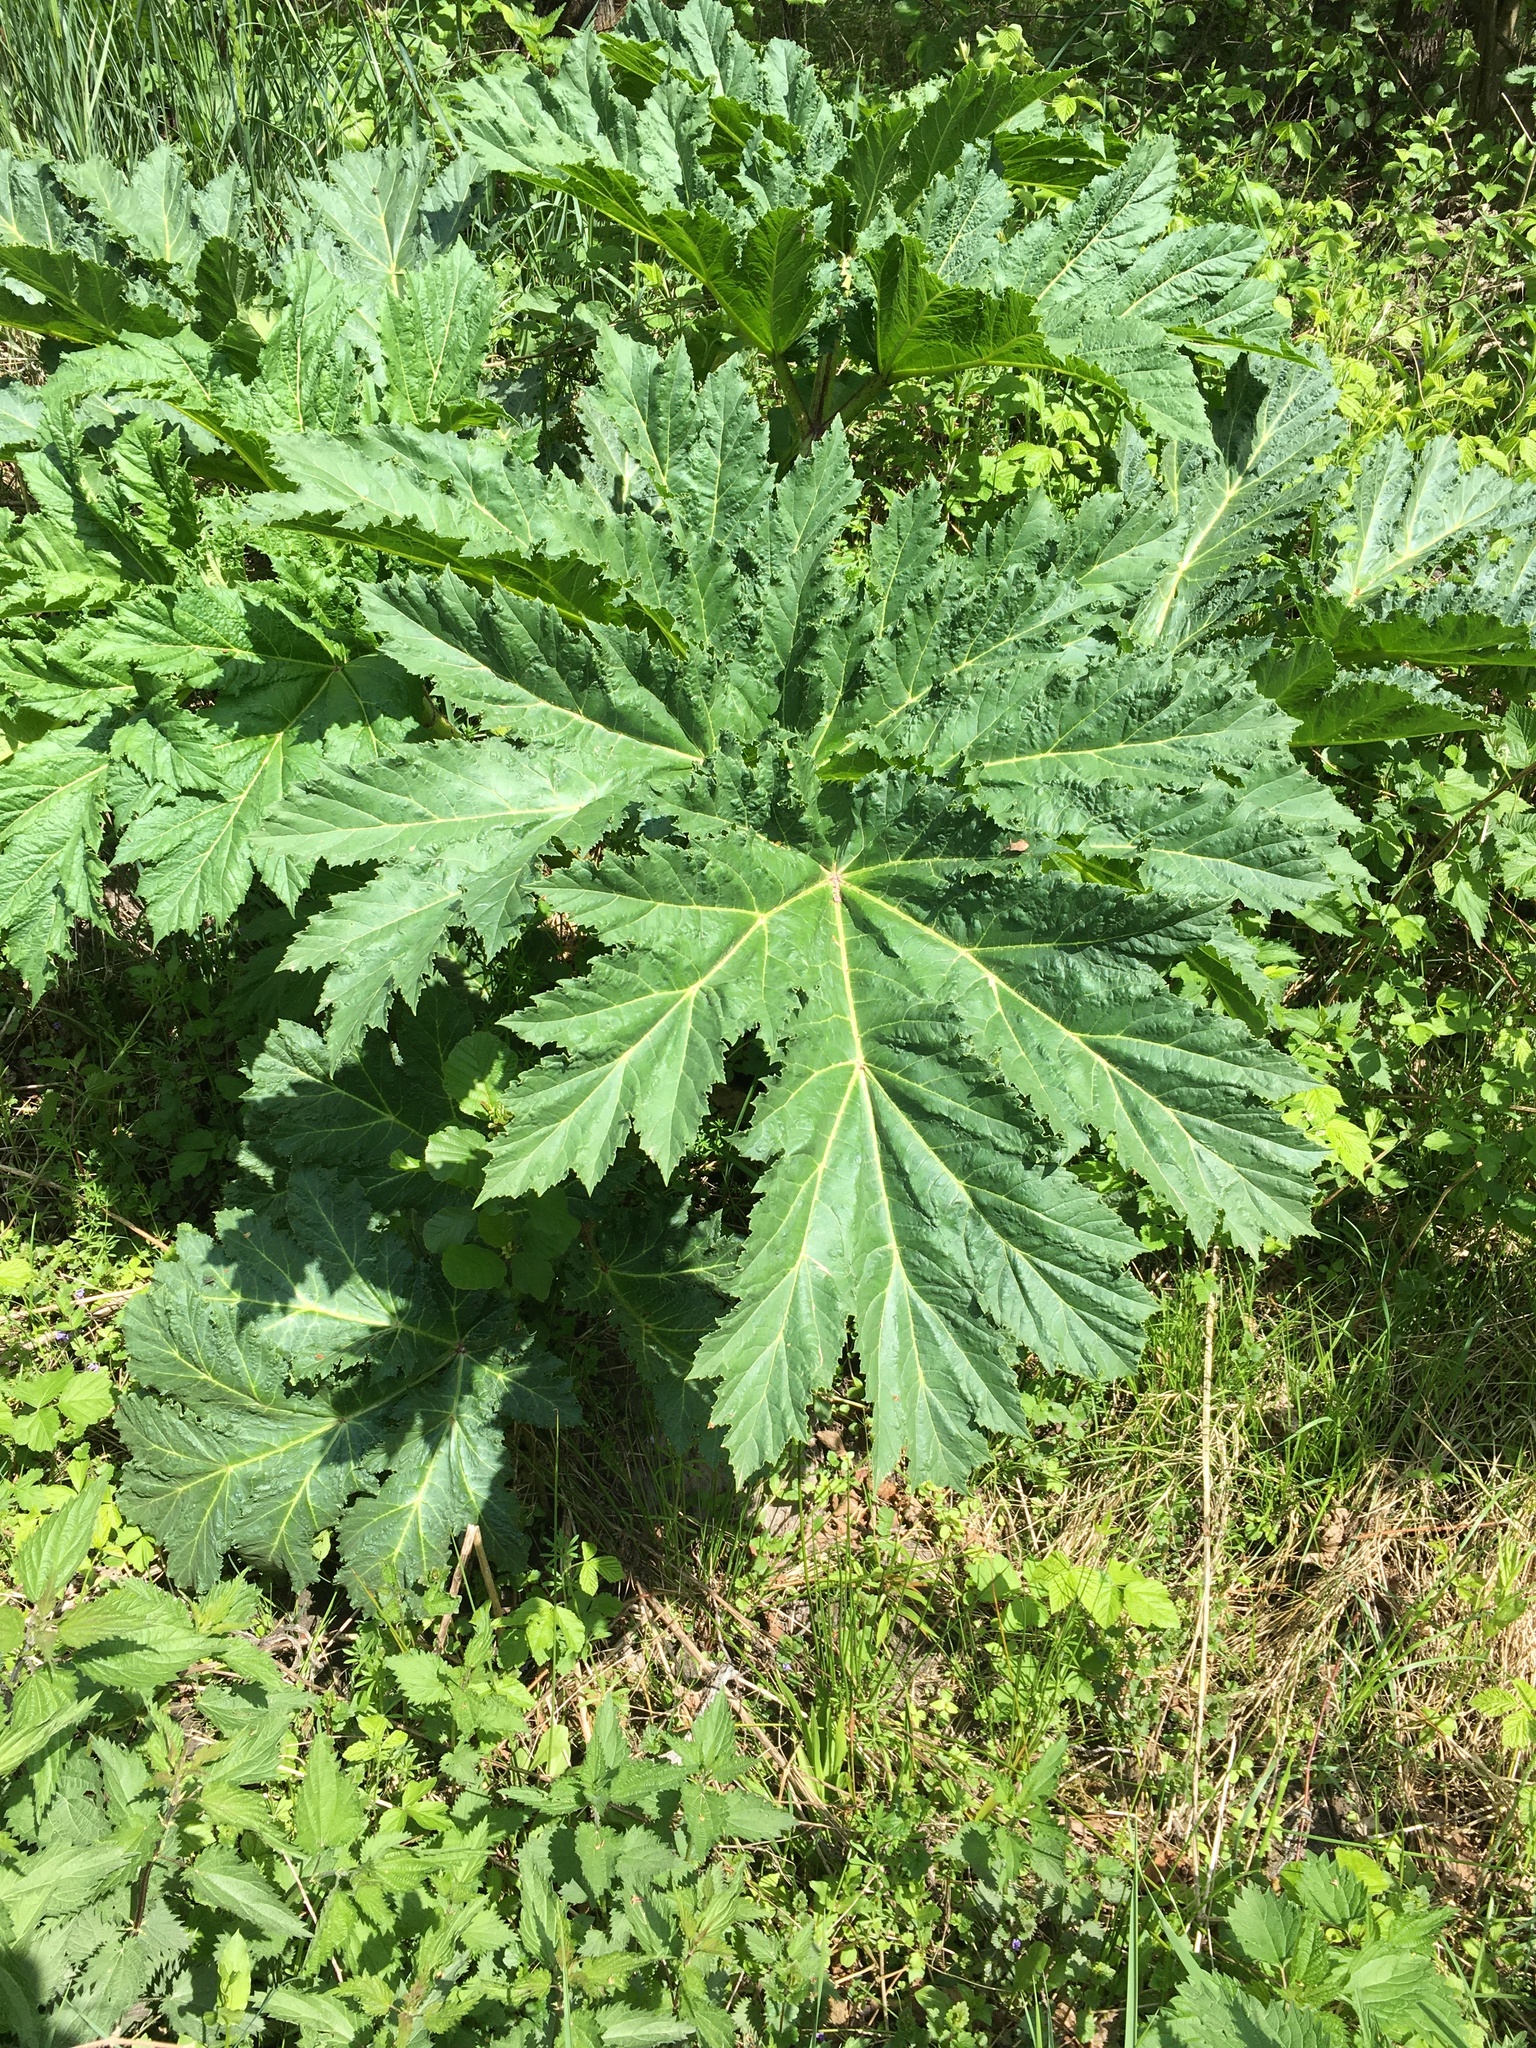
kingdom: Plantae
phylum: Tracheophyta
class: Magnoliopsida
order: Apiales
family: Apiaceae
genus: Heracleum
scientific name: Heracleum sosnowskyi
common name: Sosnowsky's hogweed
